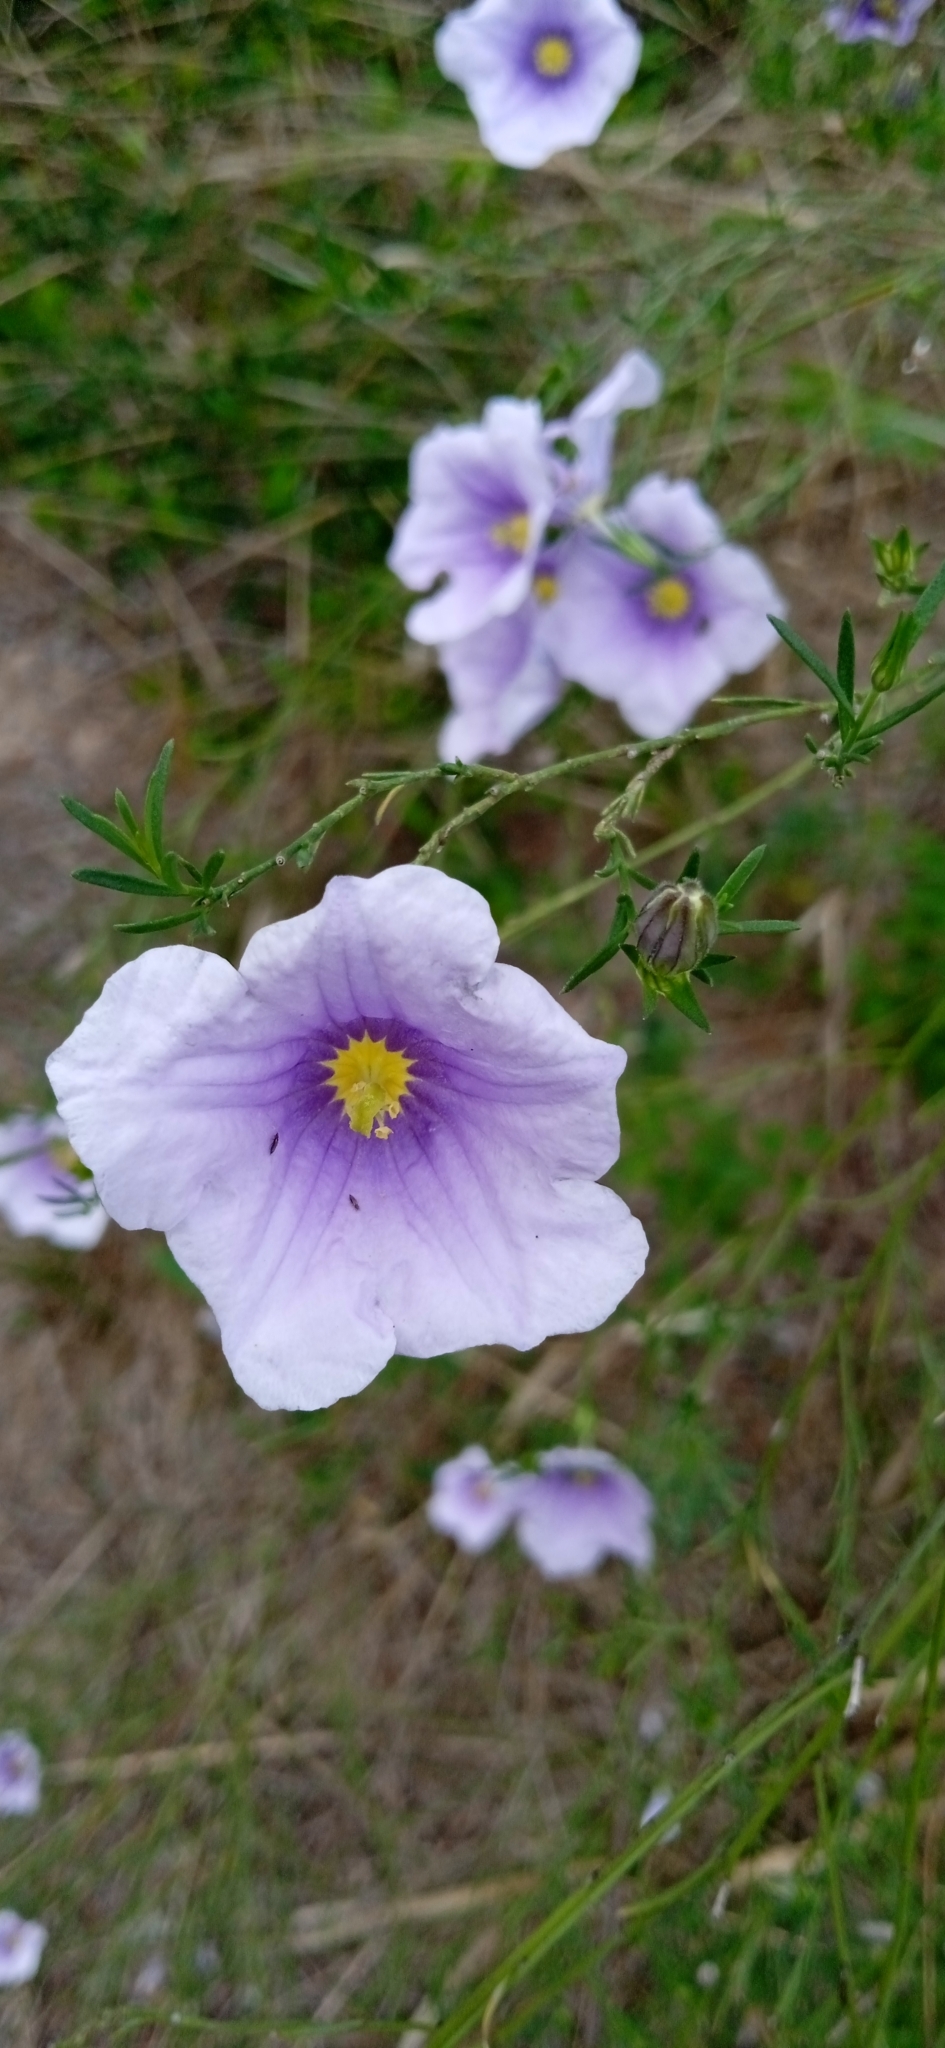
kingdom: Plantae
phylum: Tracheophyta
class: Magnoliopsida
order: Solanales
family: Solanaceae
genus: Nierembergia
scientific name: Nierembergia scoparia
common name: Broom cupflower
